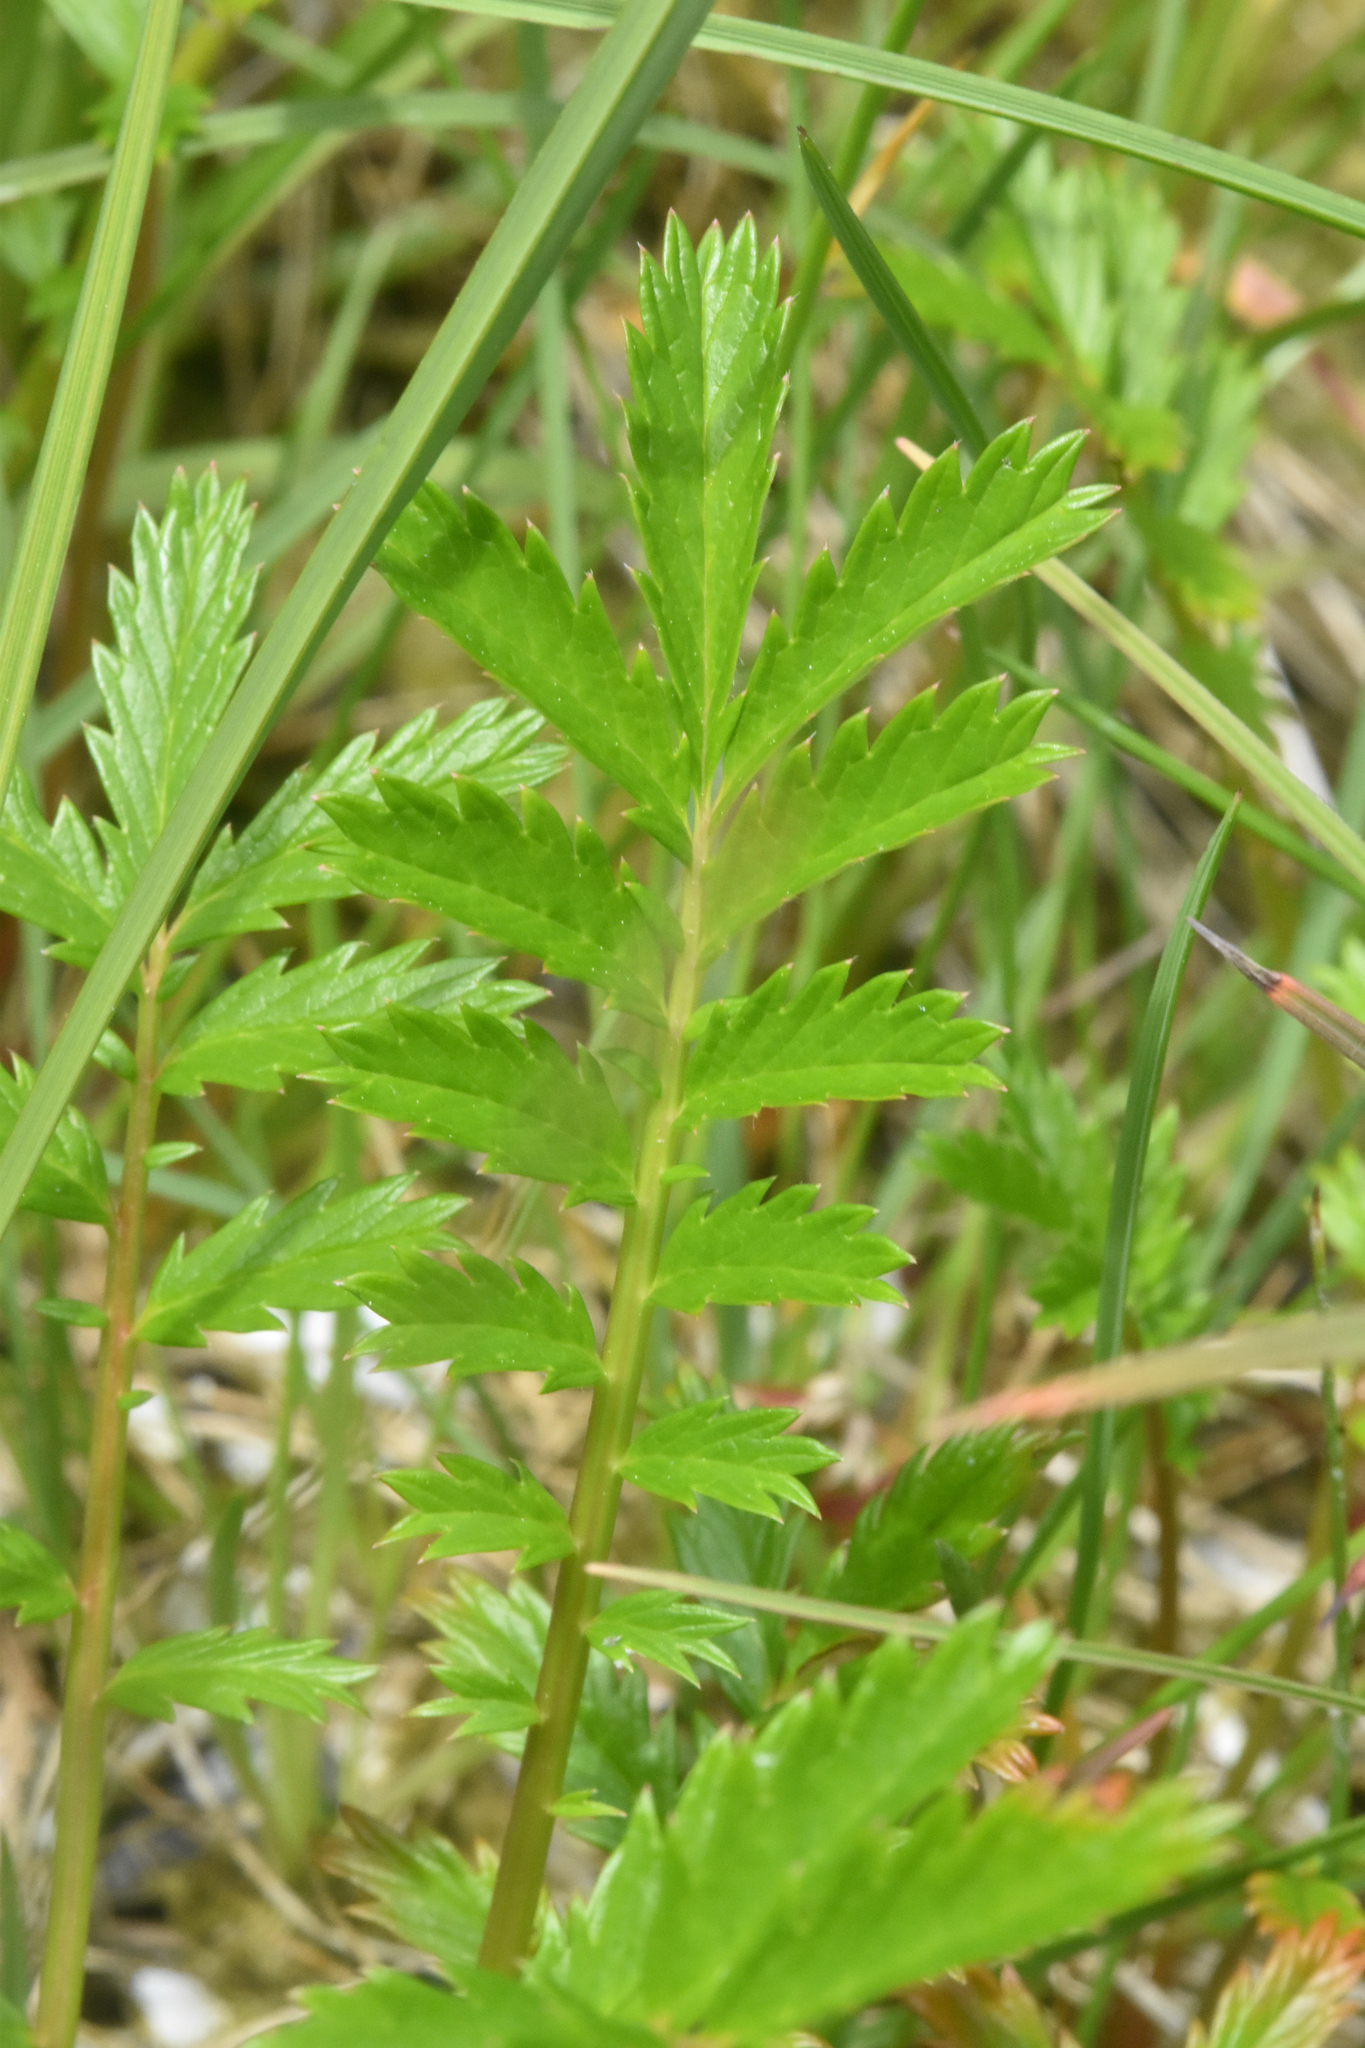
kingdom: Plantae
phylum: Tracheophyta
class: Magnoliopsida
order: Rosales
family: Rosaceae
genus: Argentina
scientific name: Argentina anserina
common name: Common silverweed
